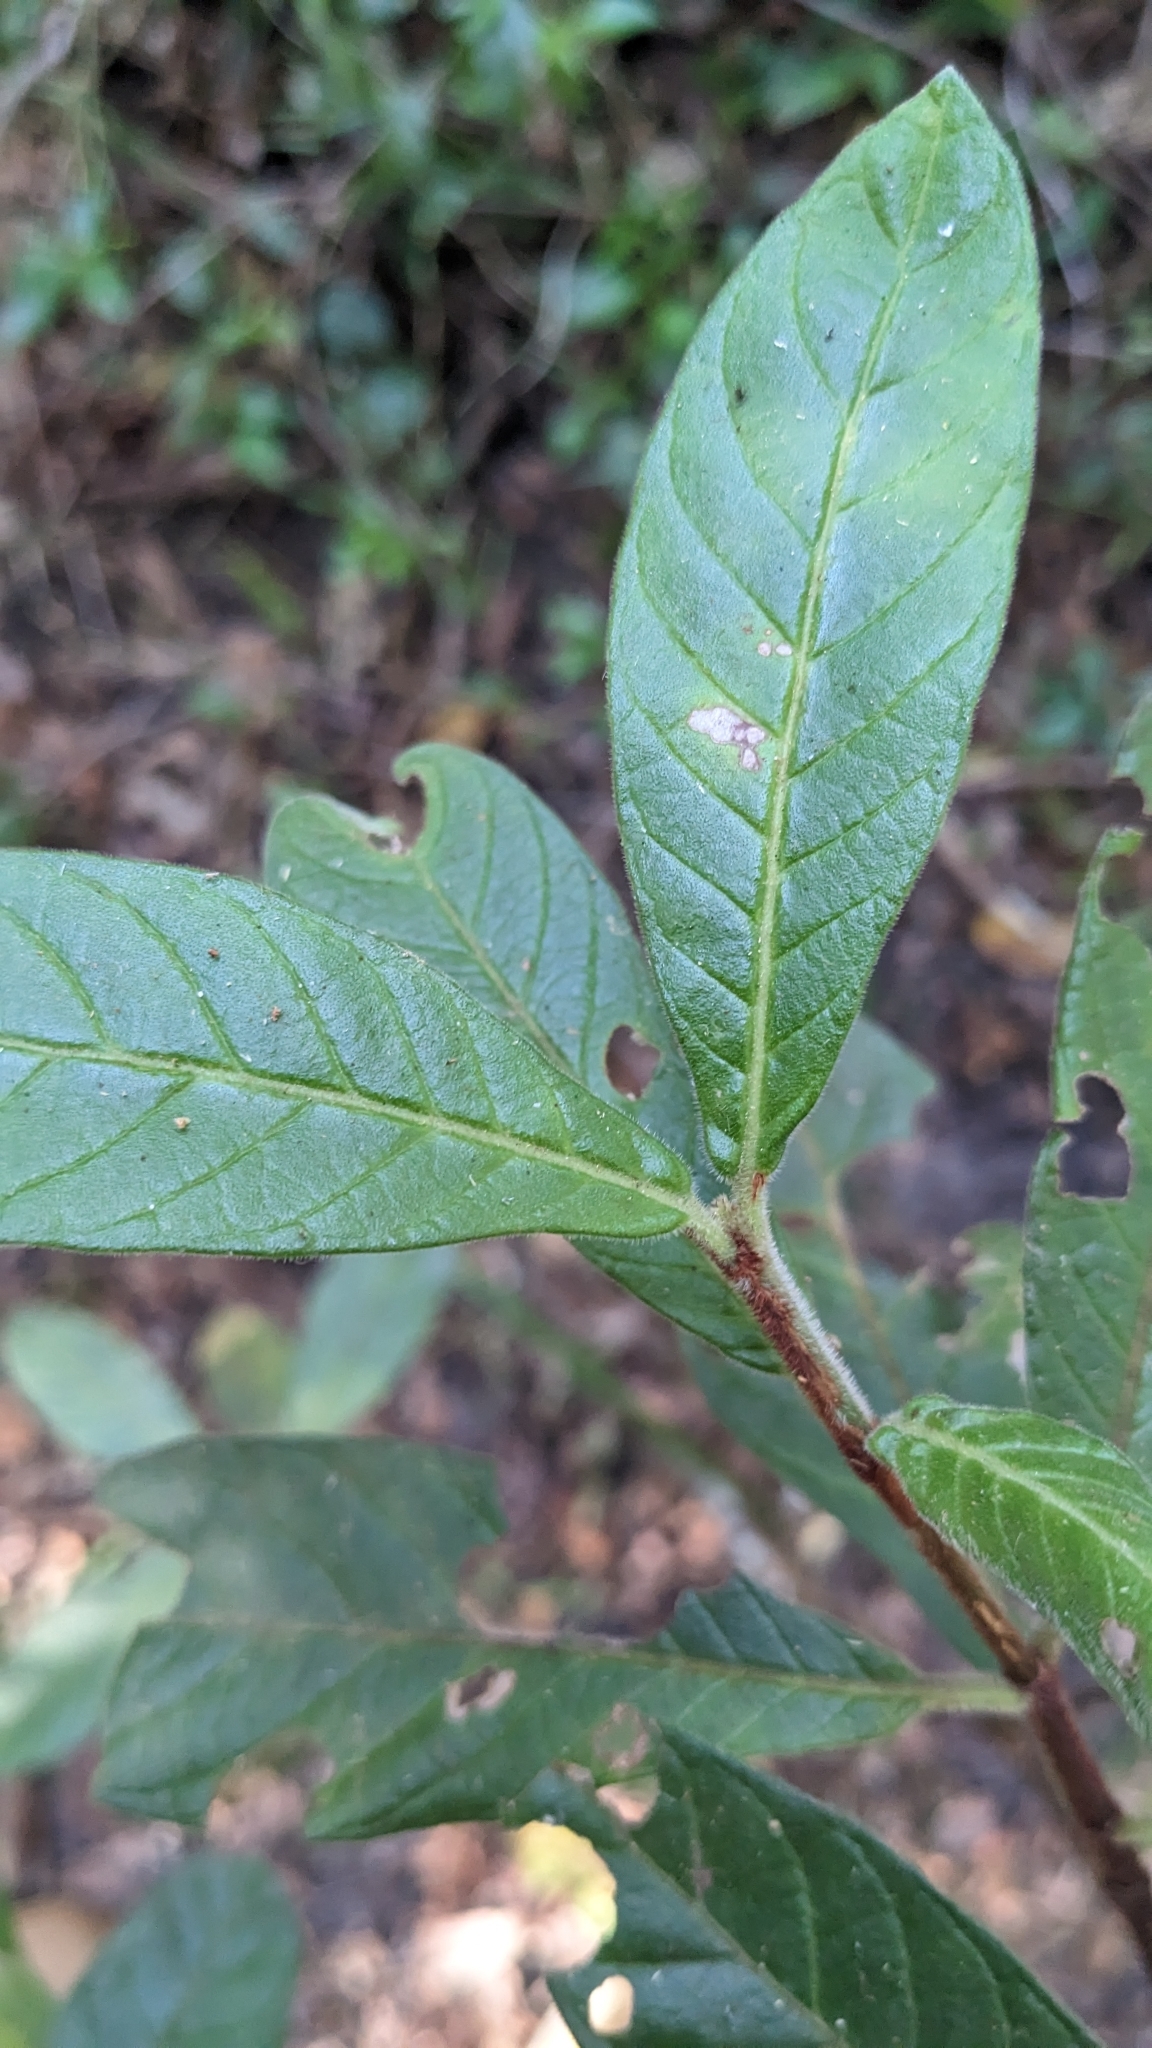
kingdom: Plantae
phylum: Tracheophyta
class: Magnoliopsida
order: Gentianales
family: Rubiaceae
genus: Psychotria
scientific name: Psychotria loniceroides
